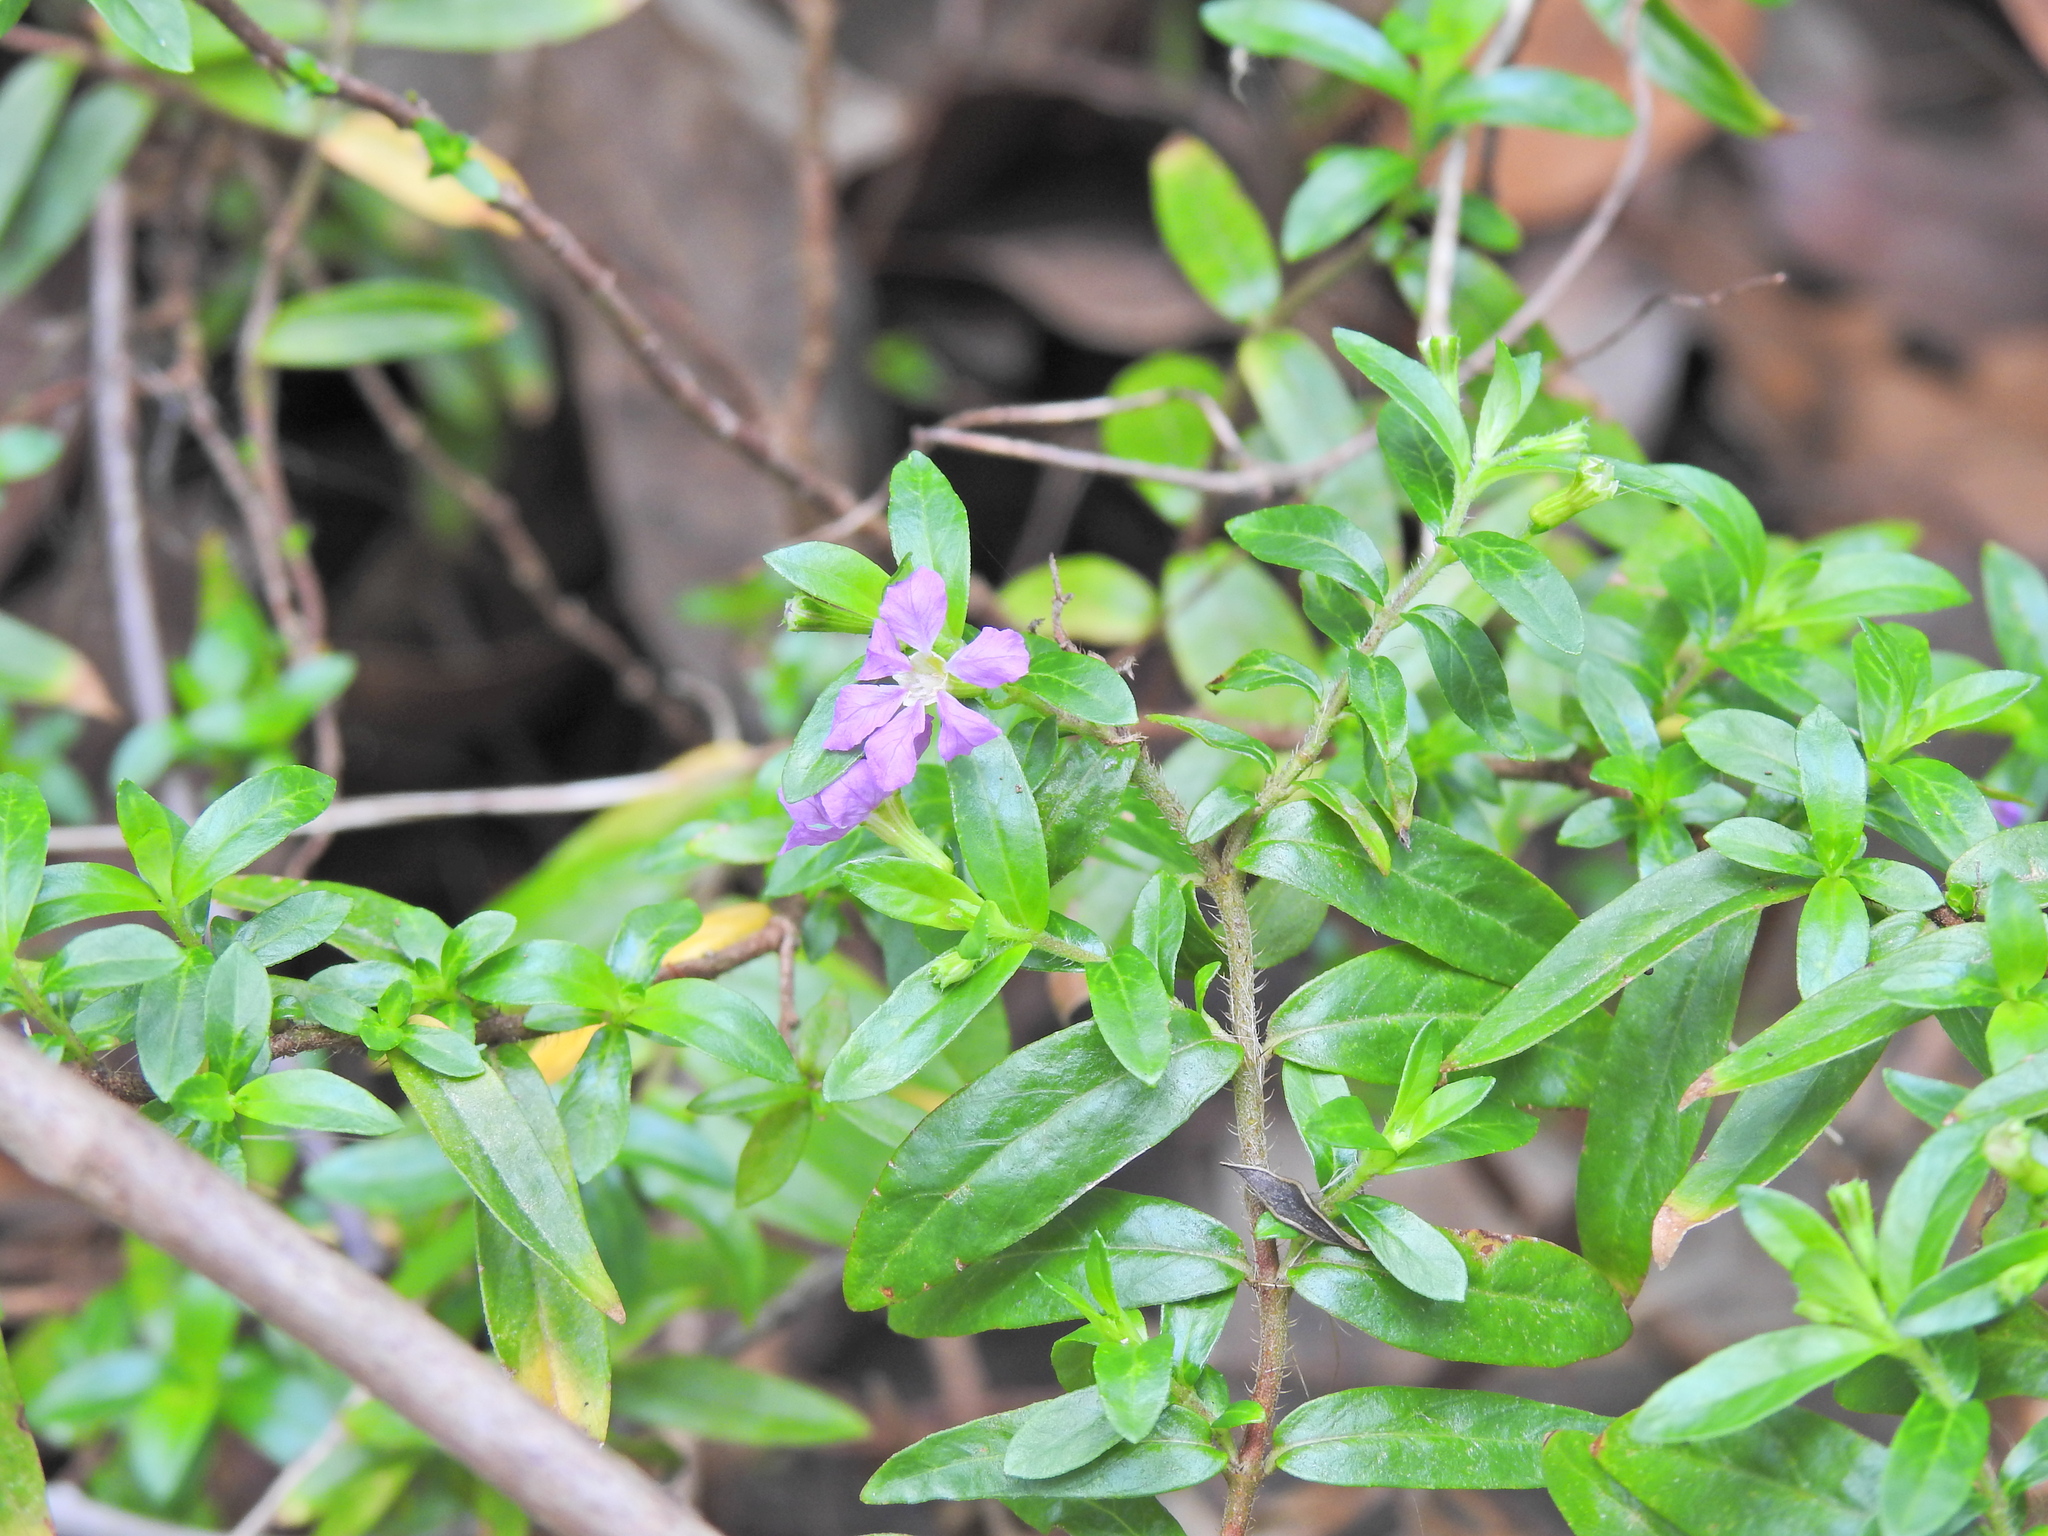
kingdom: Plantae
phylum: Tracheophyta
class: Magnoliopsida
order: Myrtales
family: Lythraceae
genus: Cuphea
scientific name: Cuphea hyssopifolia
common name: False heather
